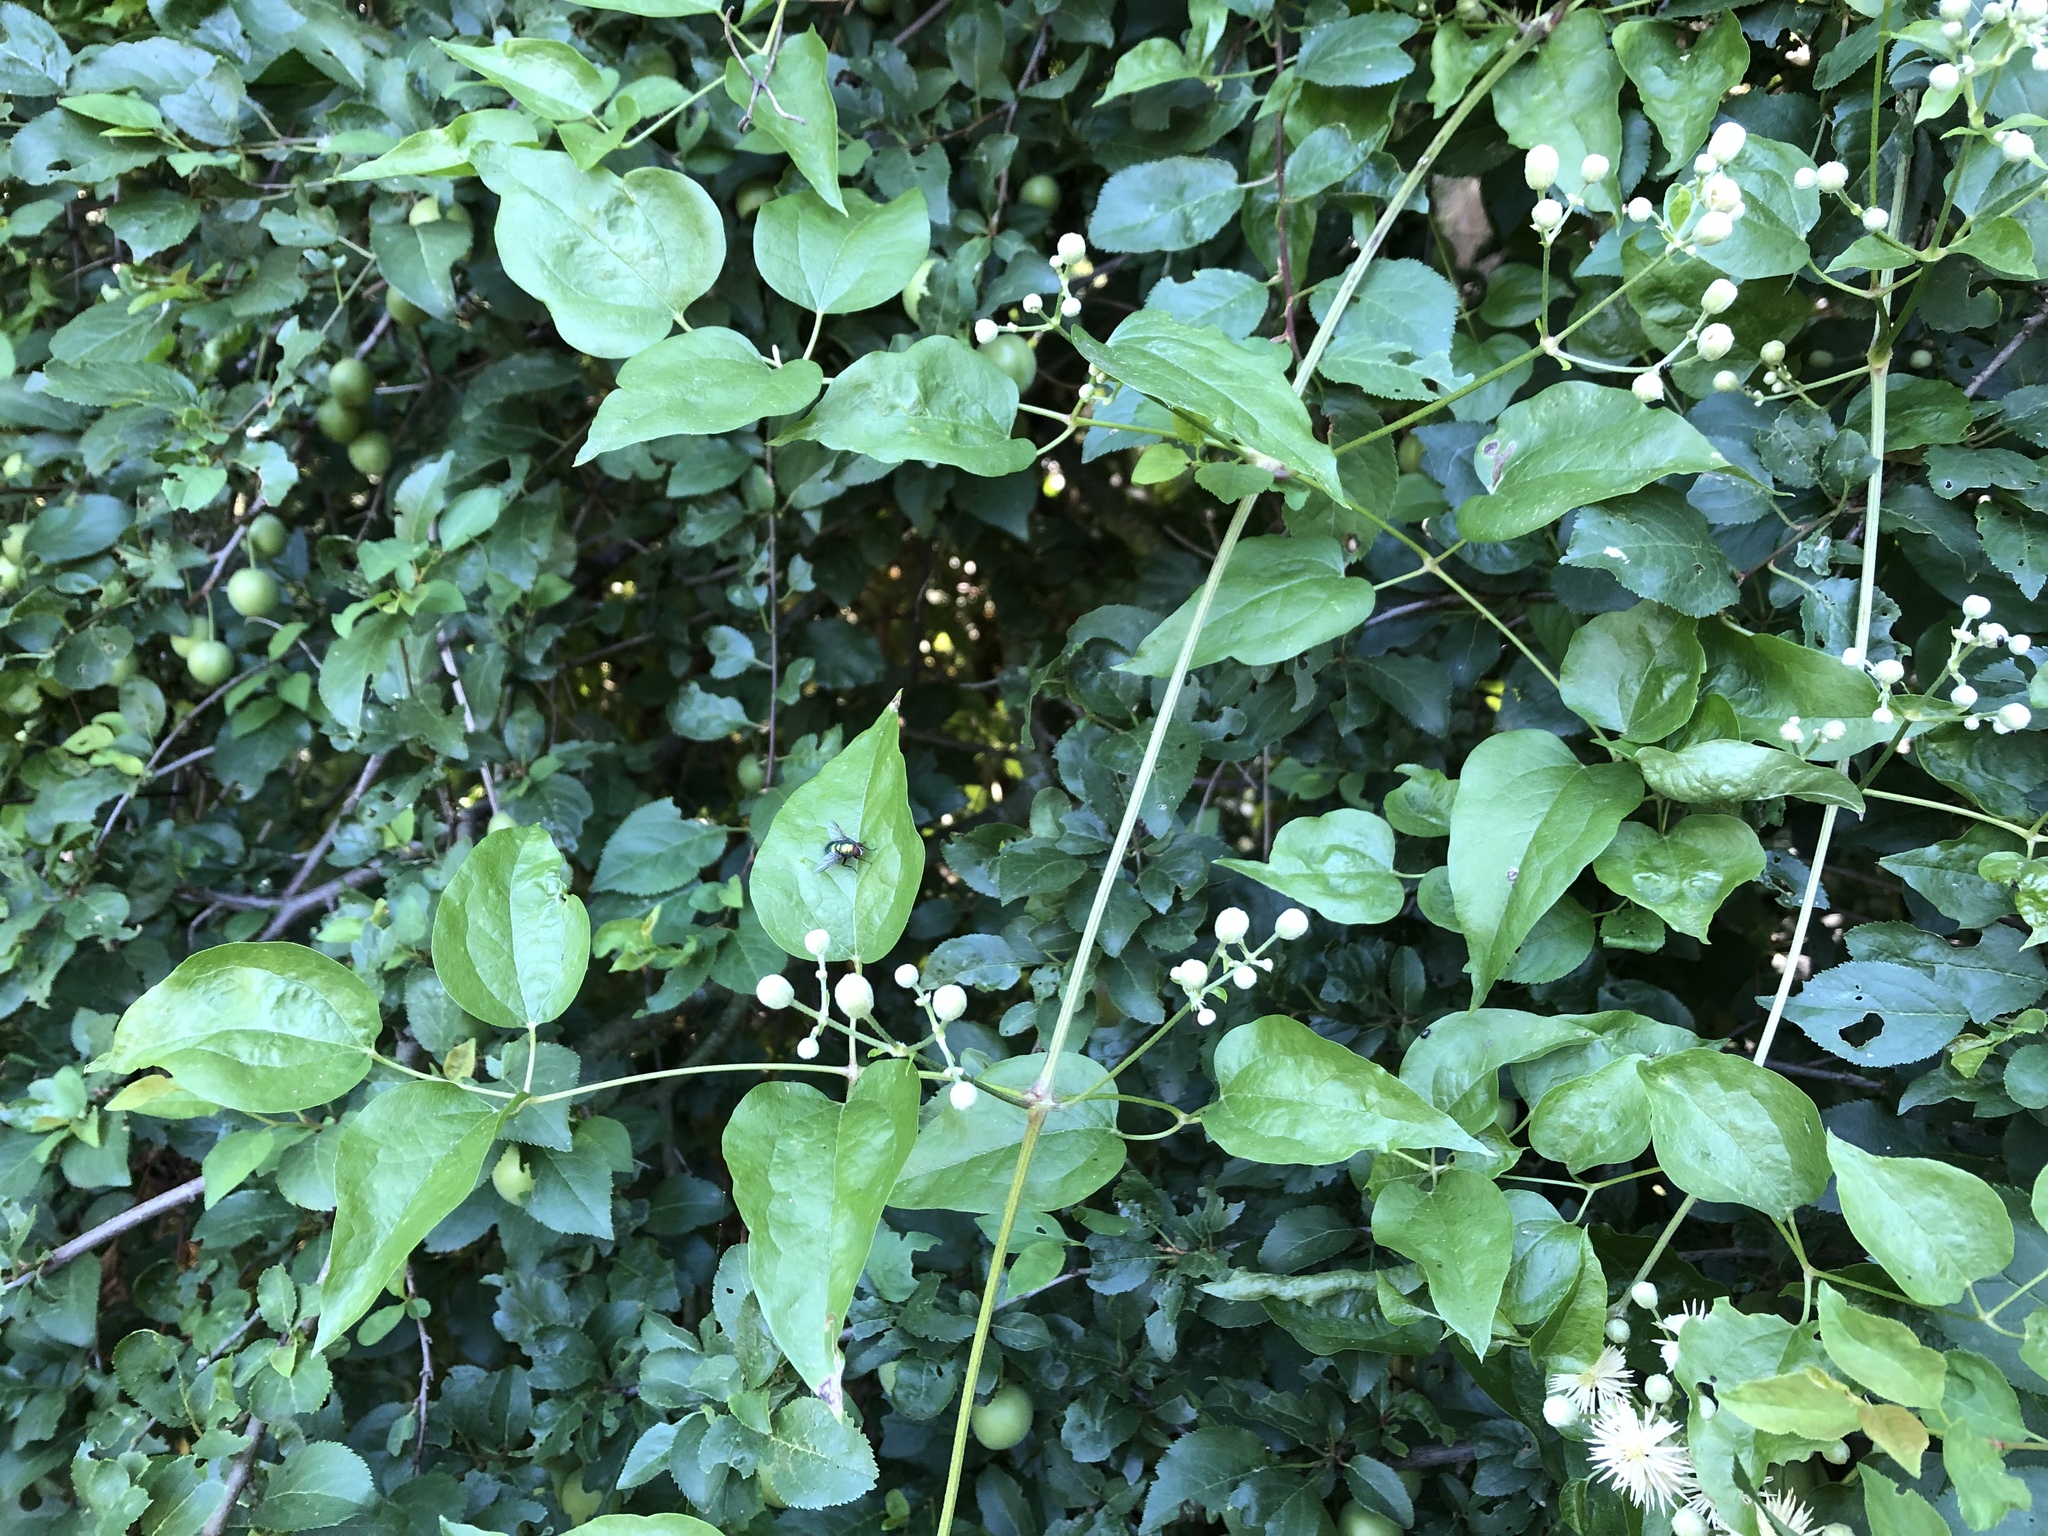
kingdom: Plantae
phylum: Tracheophyta
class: Magnoliopsida
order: Ranunculales
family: Ranunculaceae
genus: Clematis
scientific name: Clematis vitalba
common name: Evergreen clematis
